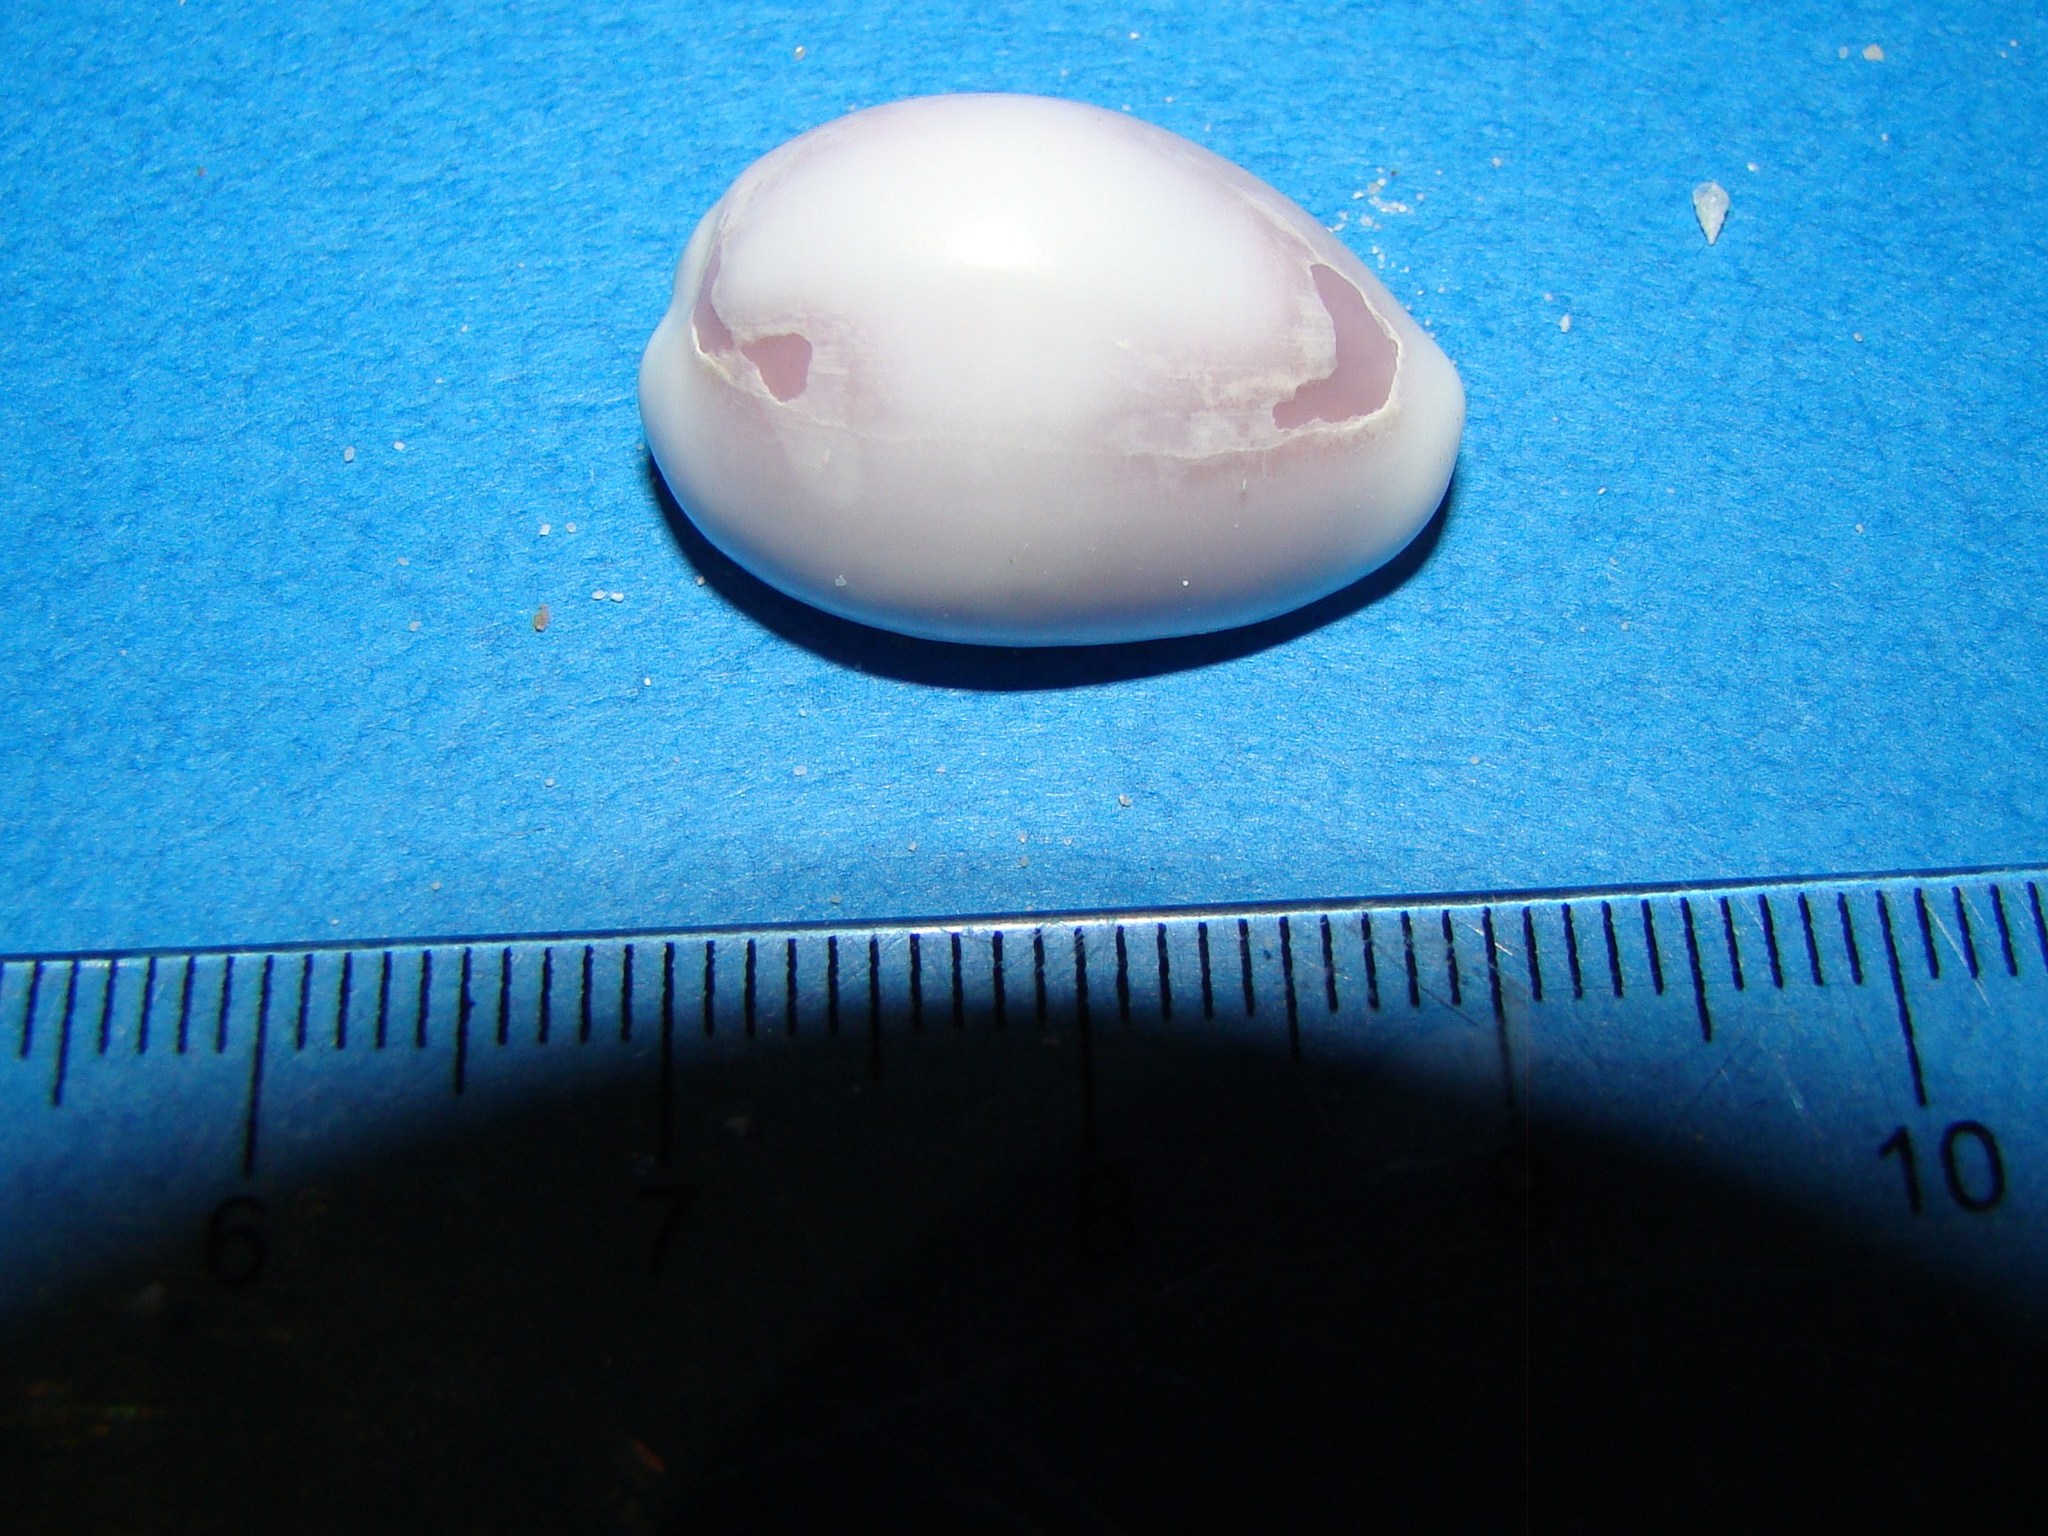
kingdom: Animalia
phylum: Mollusca
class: Gastropoda
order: Littorinimorpha
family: Cypraeidae
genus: Monetaria
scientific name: Monetaria annulus
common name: Ring cowrie
